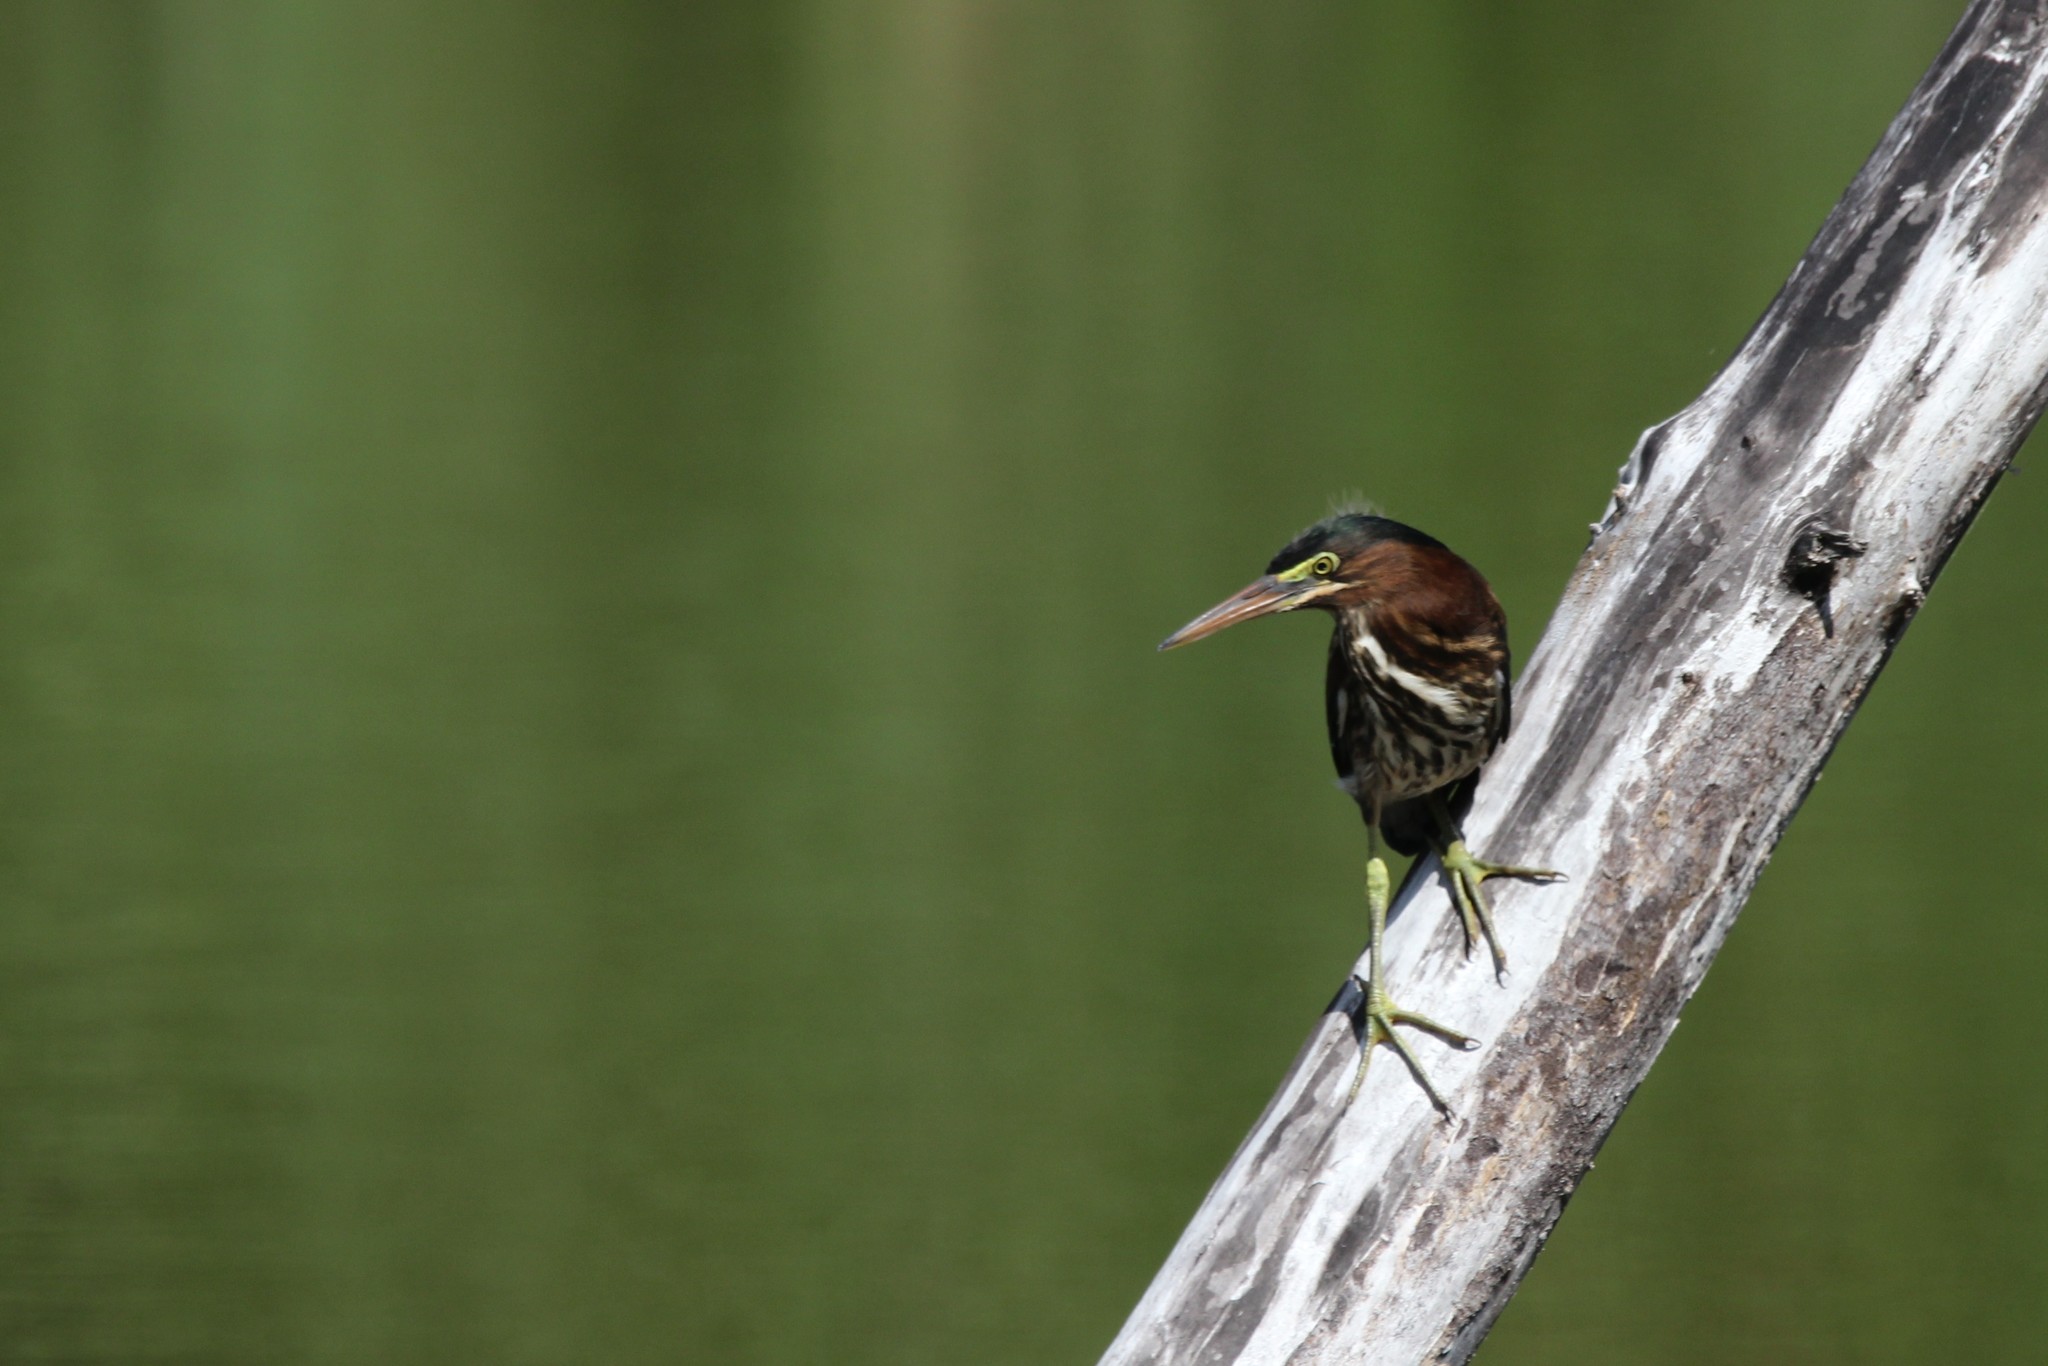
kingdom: Animalia
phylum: Chordata
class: Aves
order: Pelecaniformes
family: Ardeidae
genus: Butorides
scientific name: Butorides virescens
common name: Green heron
